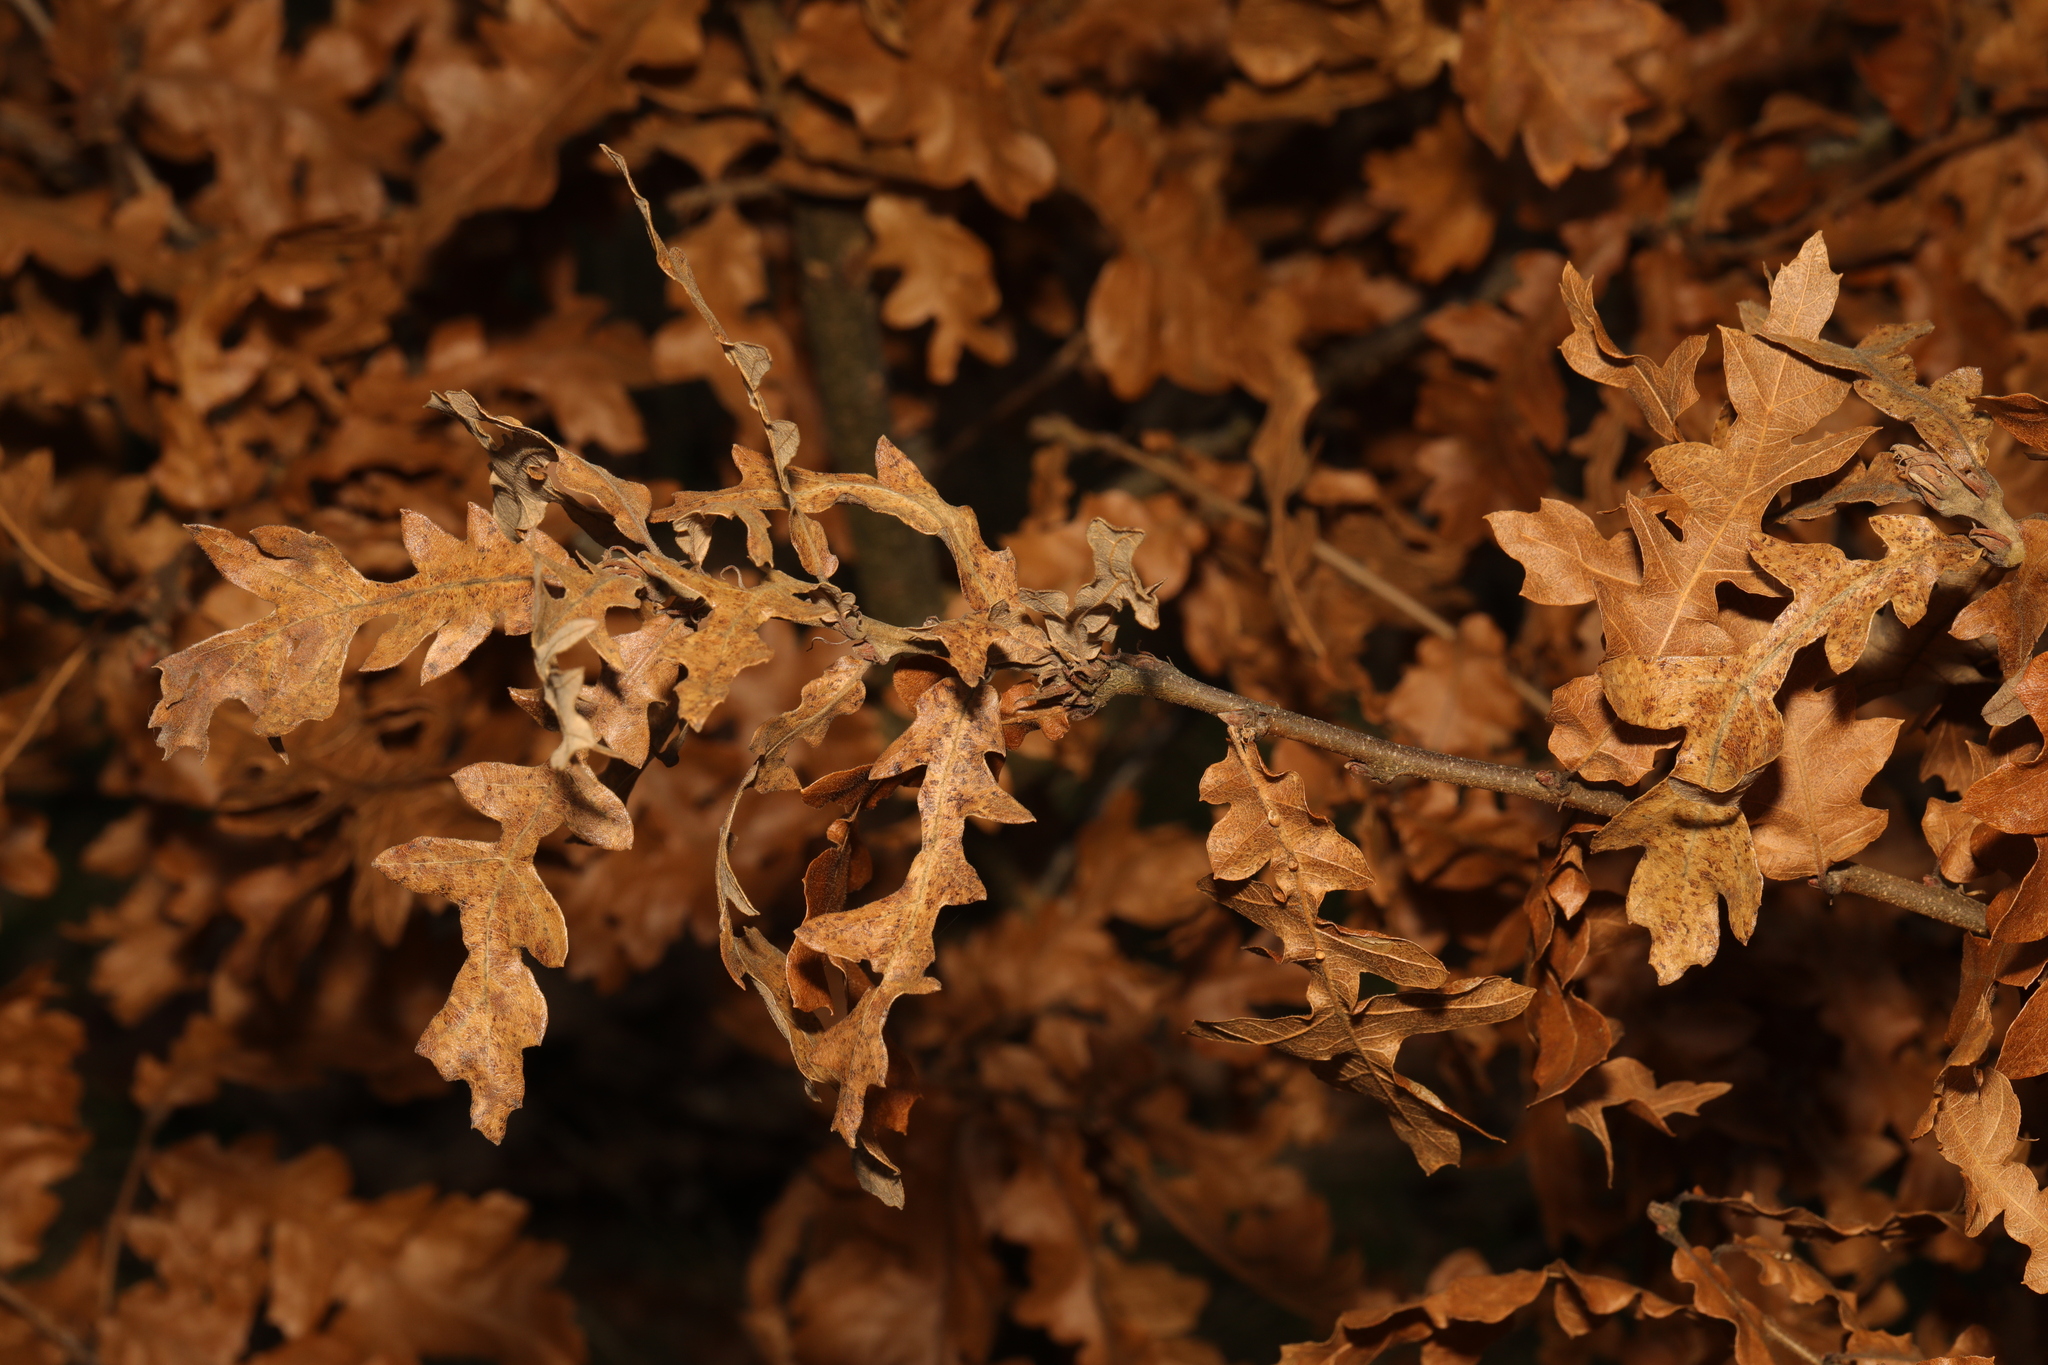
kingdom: Plantae
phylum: Tracheophyta
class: Magnoliopsida
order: Fagales
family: Fagaceae
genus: Quercus
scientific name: Quercus cerris
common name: Turkey oak
